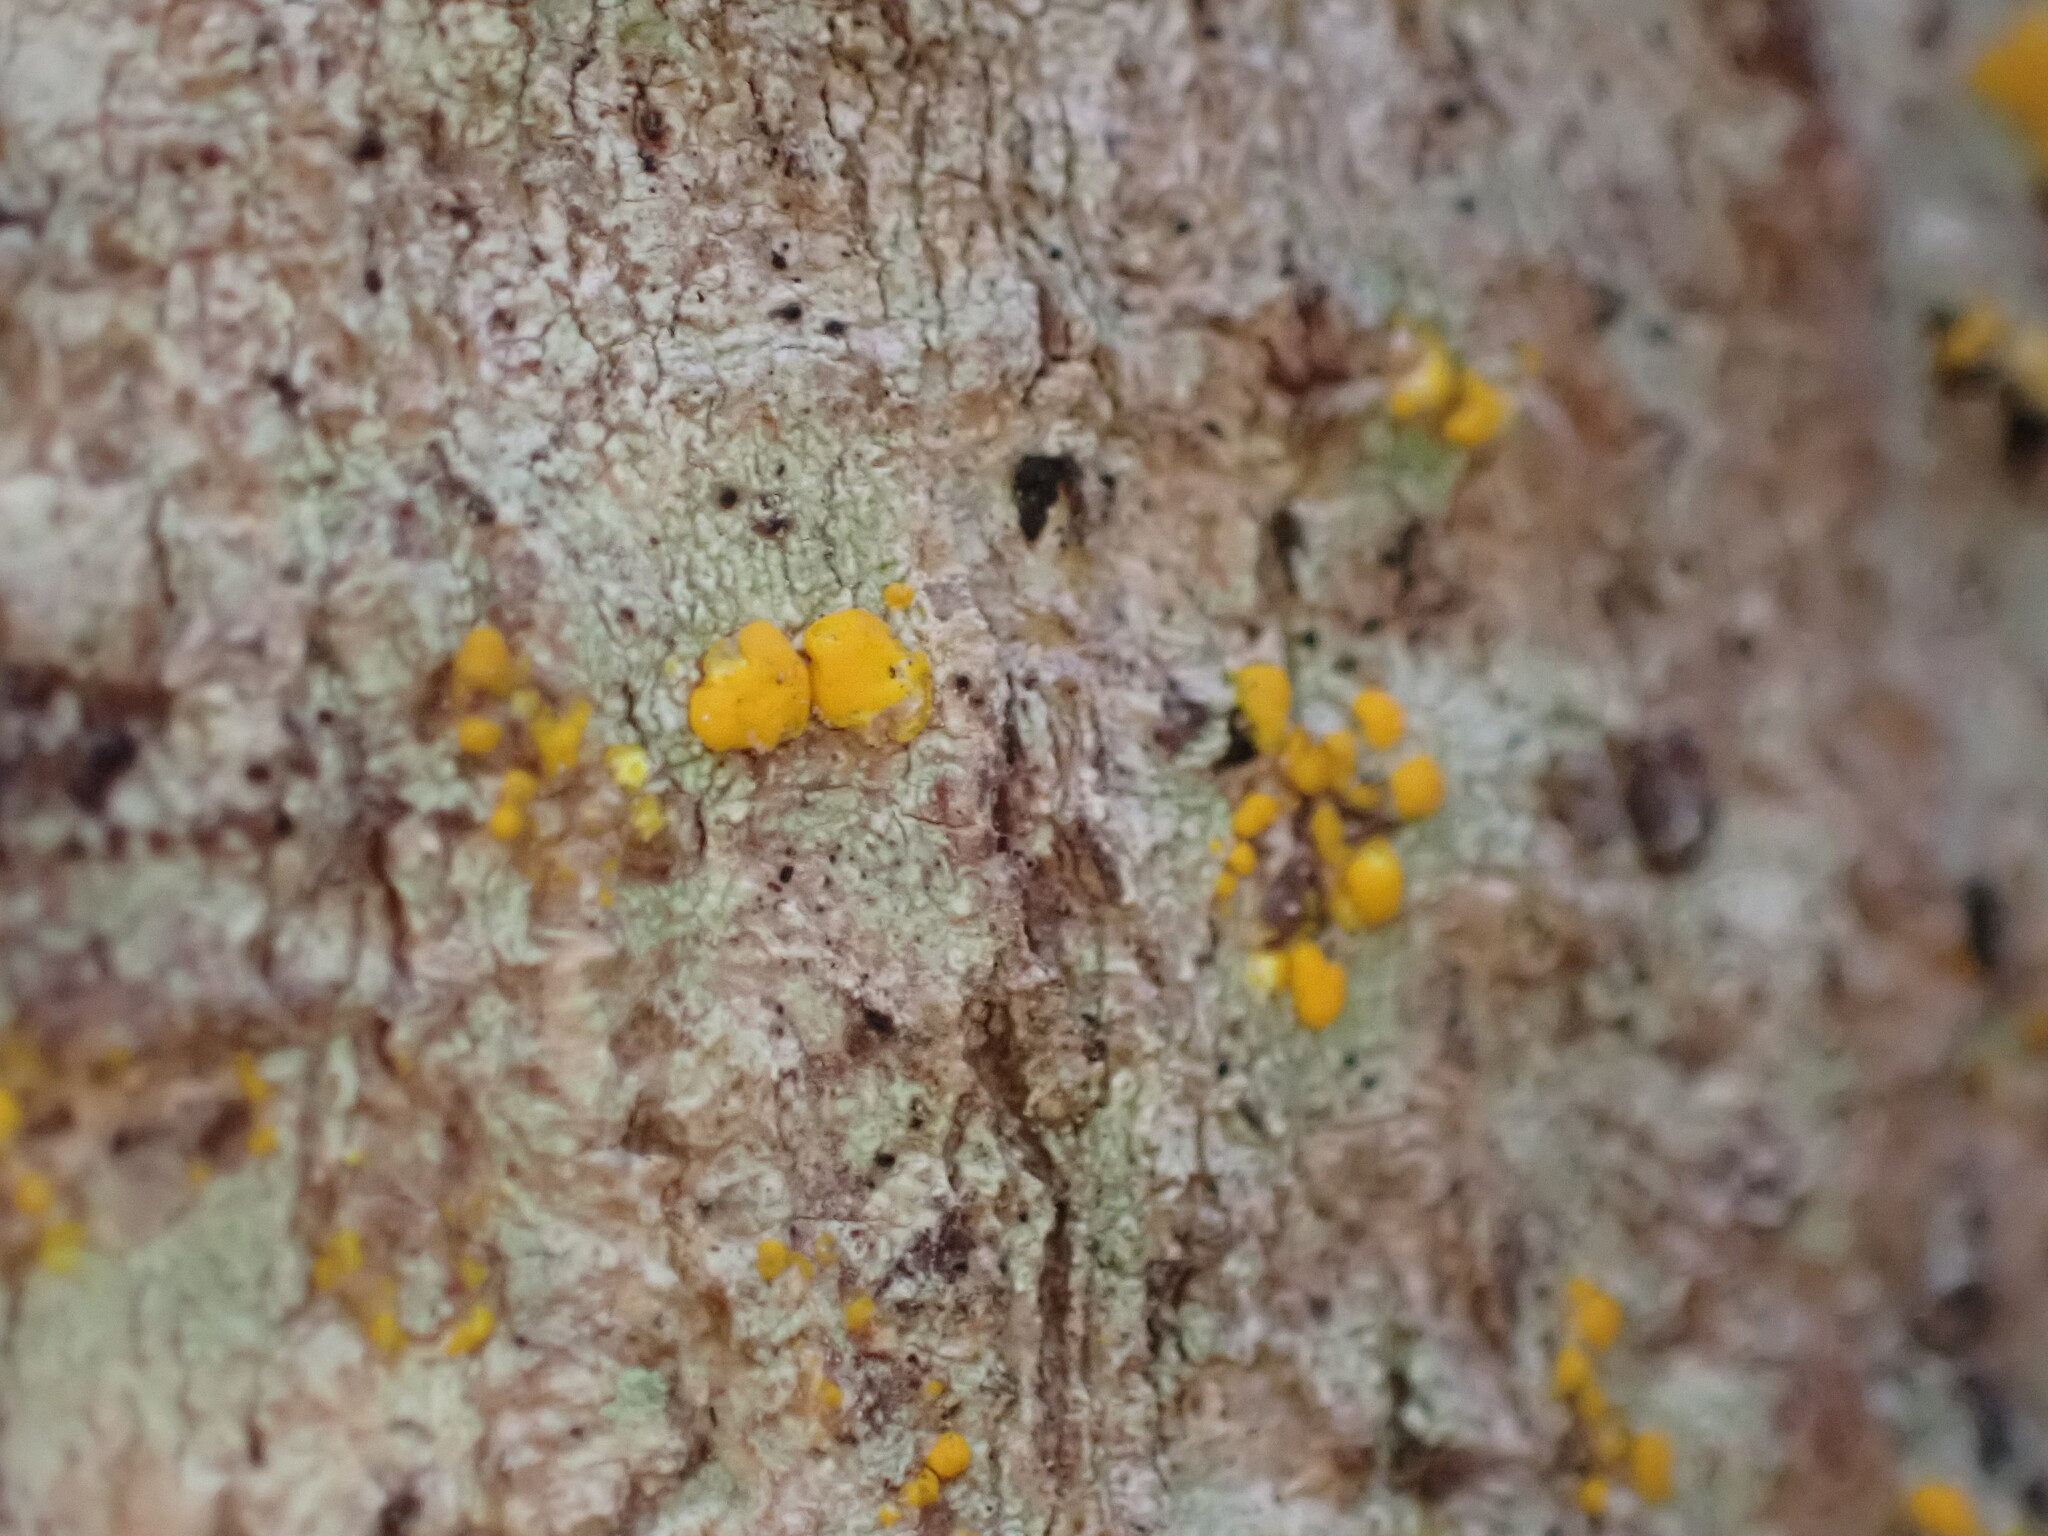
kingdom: Fungi
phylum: Ascomycota
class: Lecanoromycetes
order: Lecanorales
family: Ramalinaceae
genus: Stirtoniella
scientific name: Stirtoniella kelica
